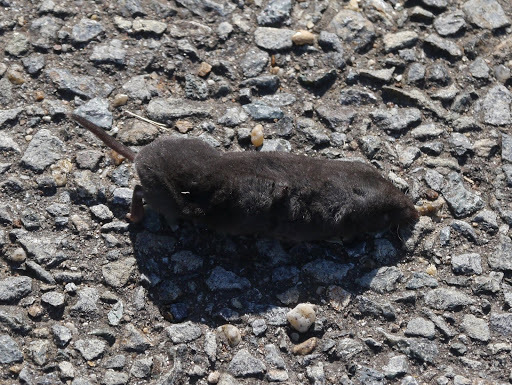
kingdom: Animalia
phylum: Chordata
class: Mammalia
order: Soricomorpha
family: Soricidae
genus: Blarina
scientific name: Blarina brevicauda
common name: Northern short-tailed shrew
